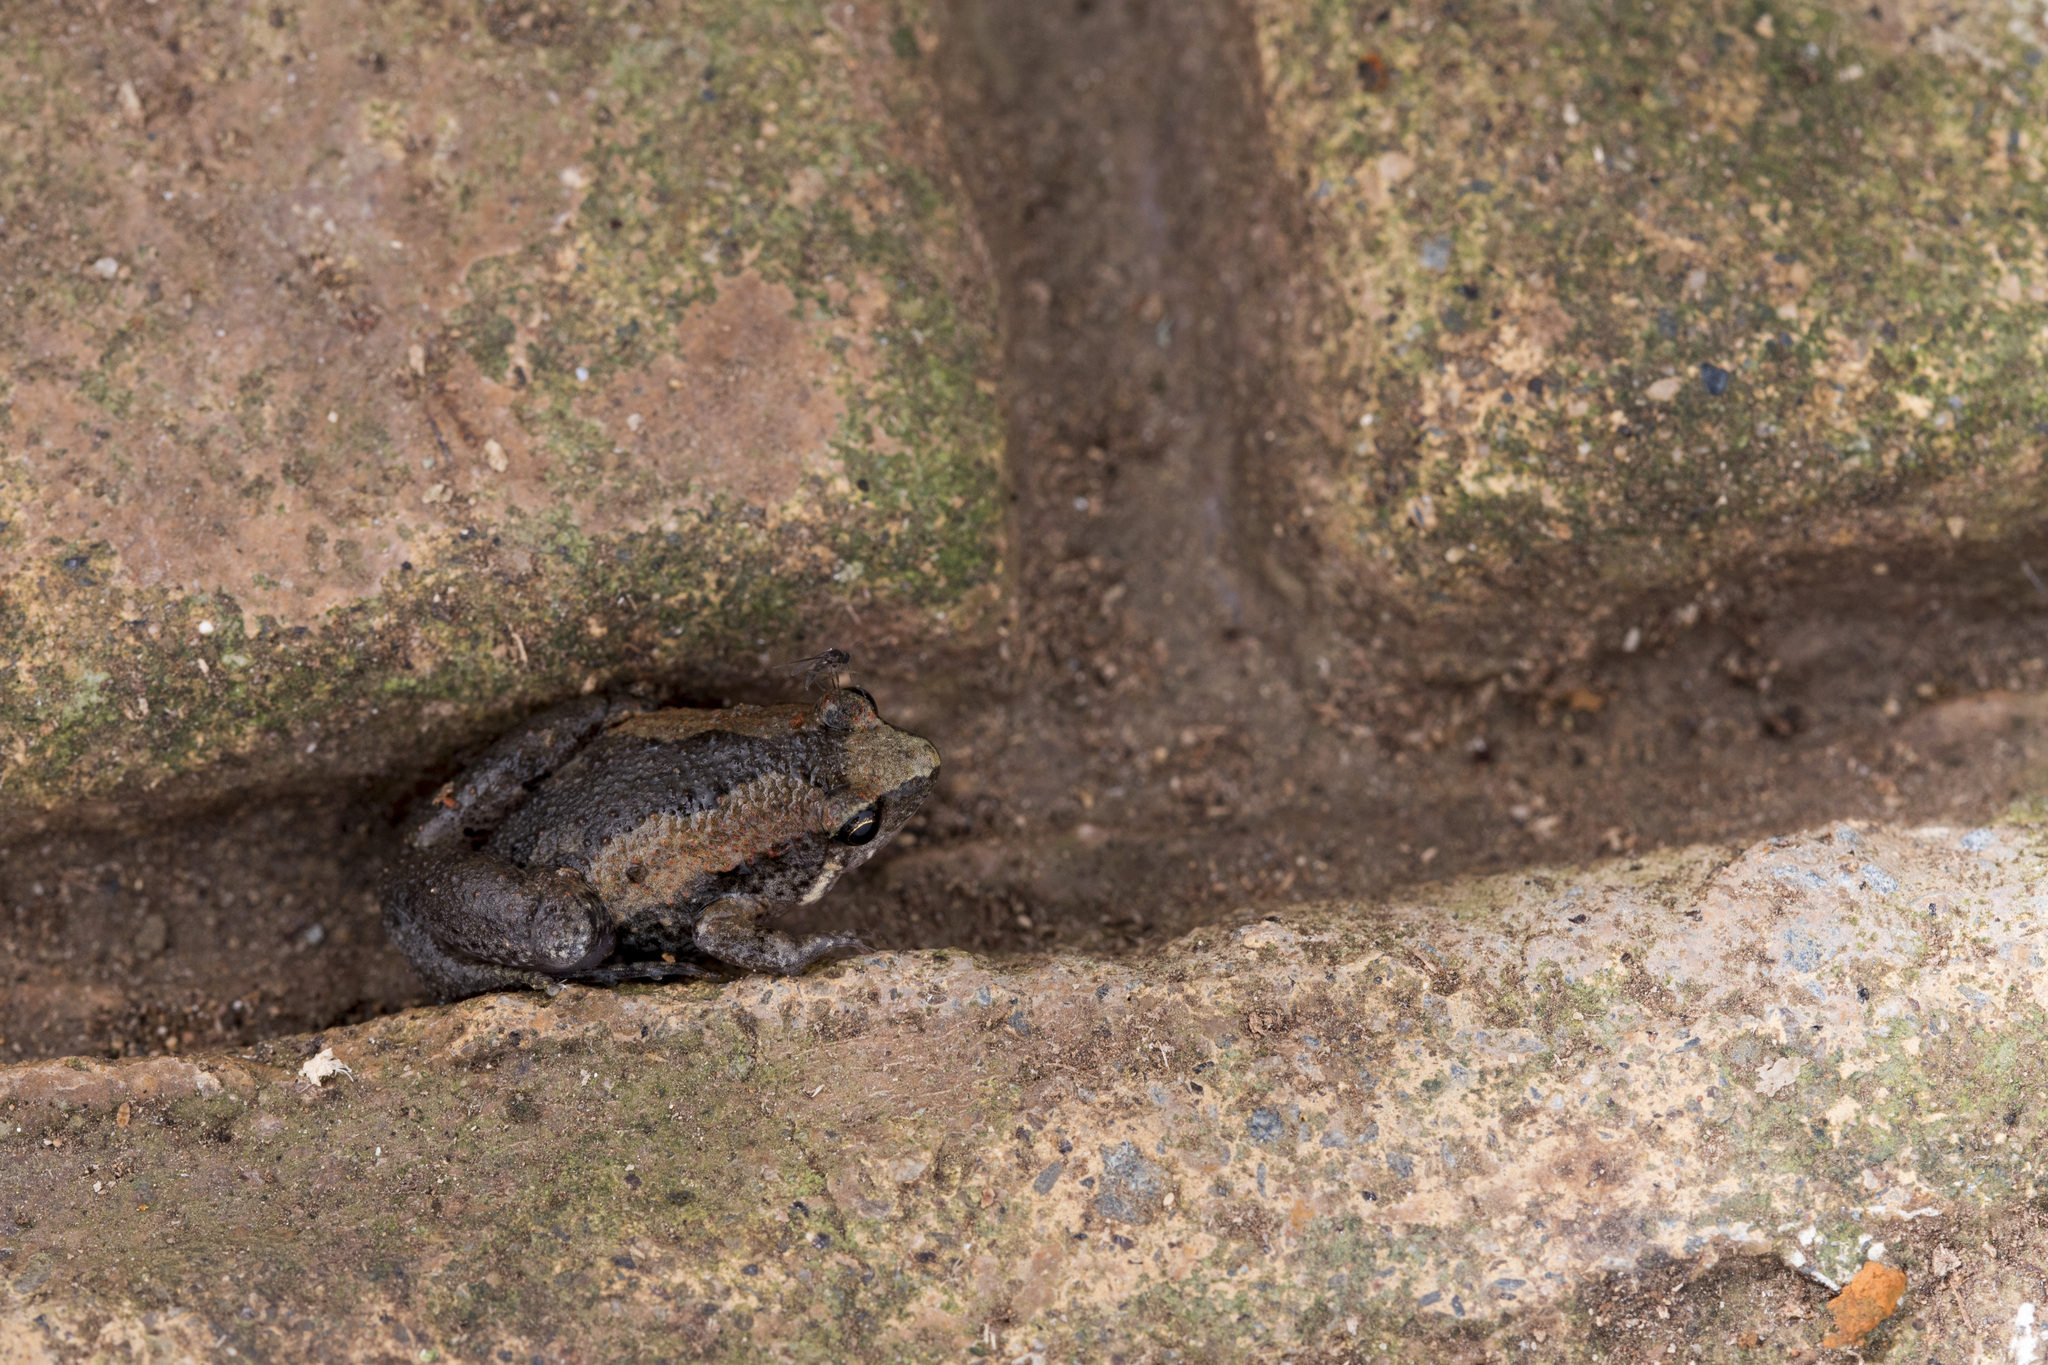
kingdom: Animalia
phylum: Chordata
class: Amphibia
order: Anura
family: Microhylidae
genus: Microhyla
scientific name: Microhyla fissipes
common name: Ornate narrow-mouthed frog
